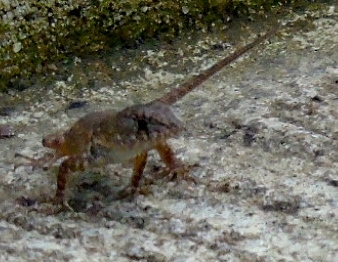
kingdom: Animalia
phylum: Chordata
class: Squamata
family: Phrynosomatidae
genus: Sceloporus
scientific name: Sceloporus nelsoni
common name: Nelson's spiny lizard
